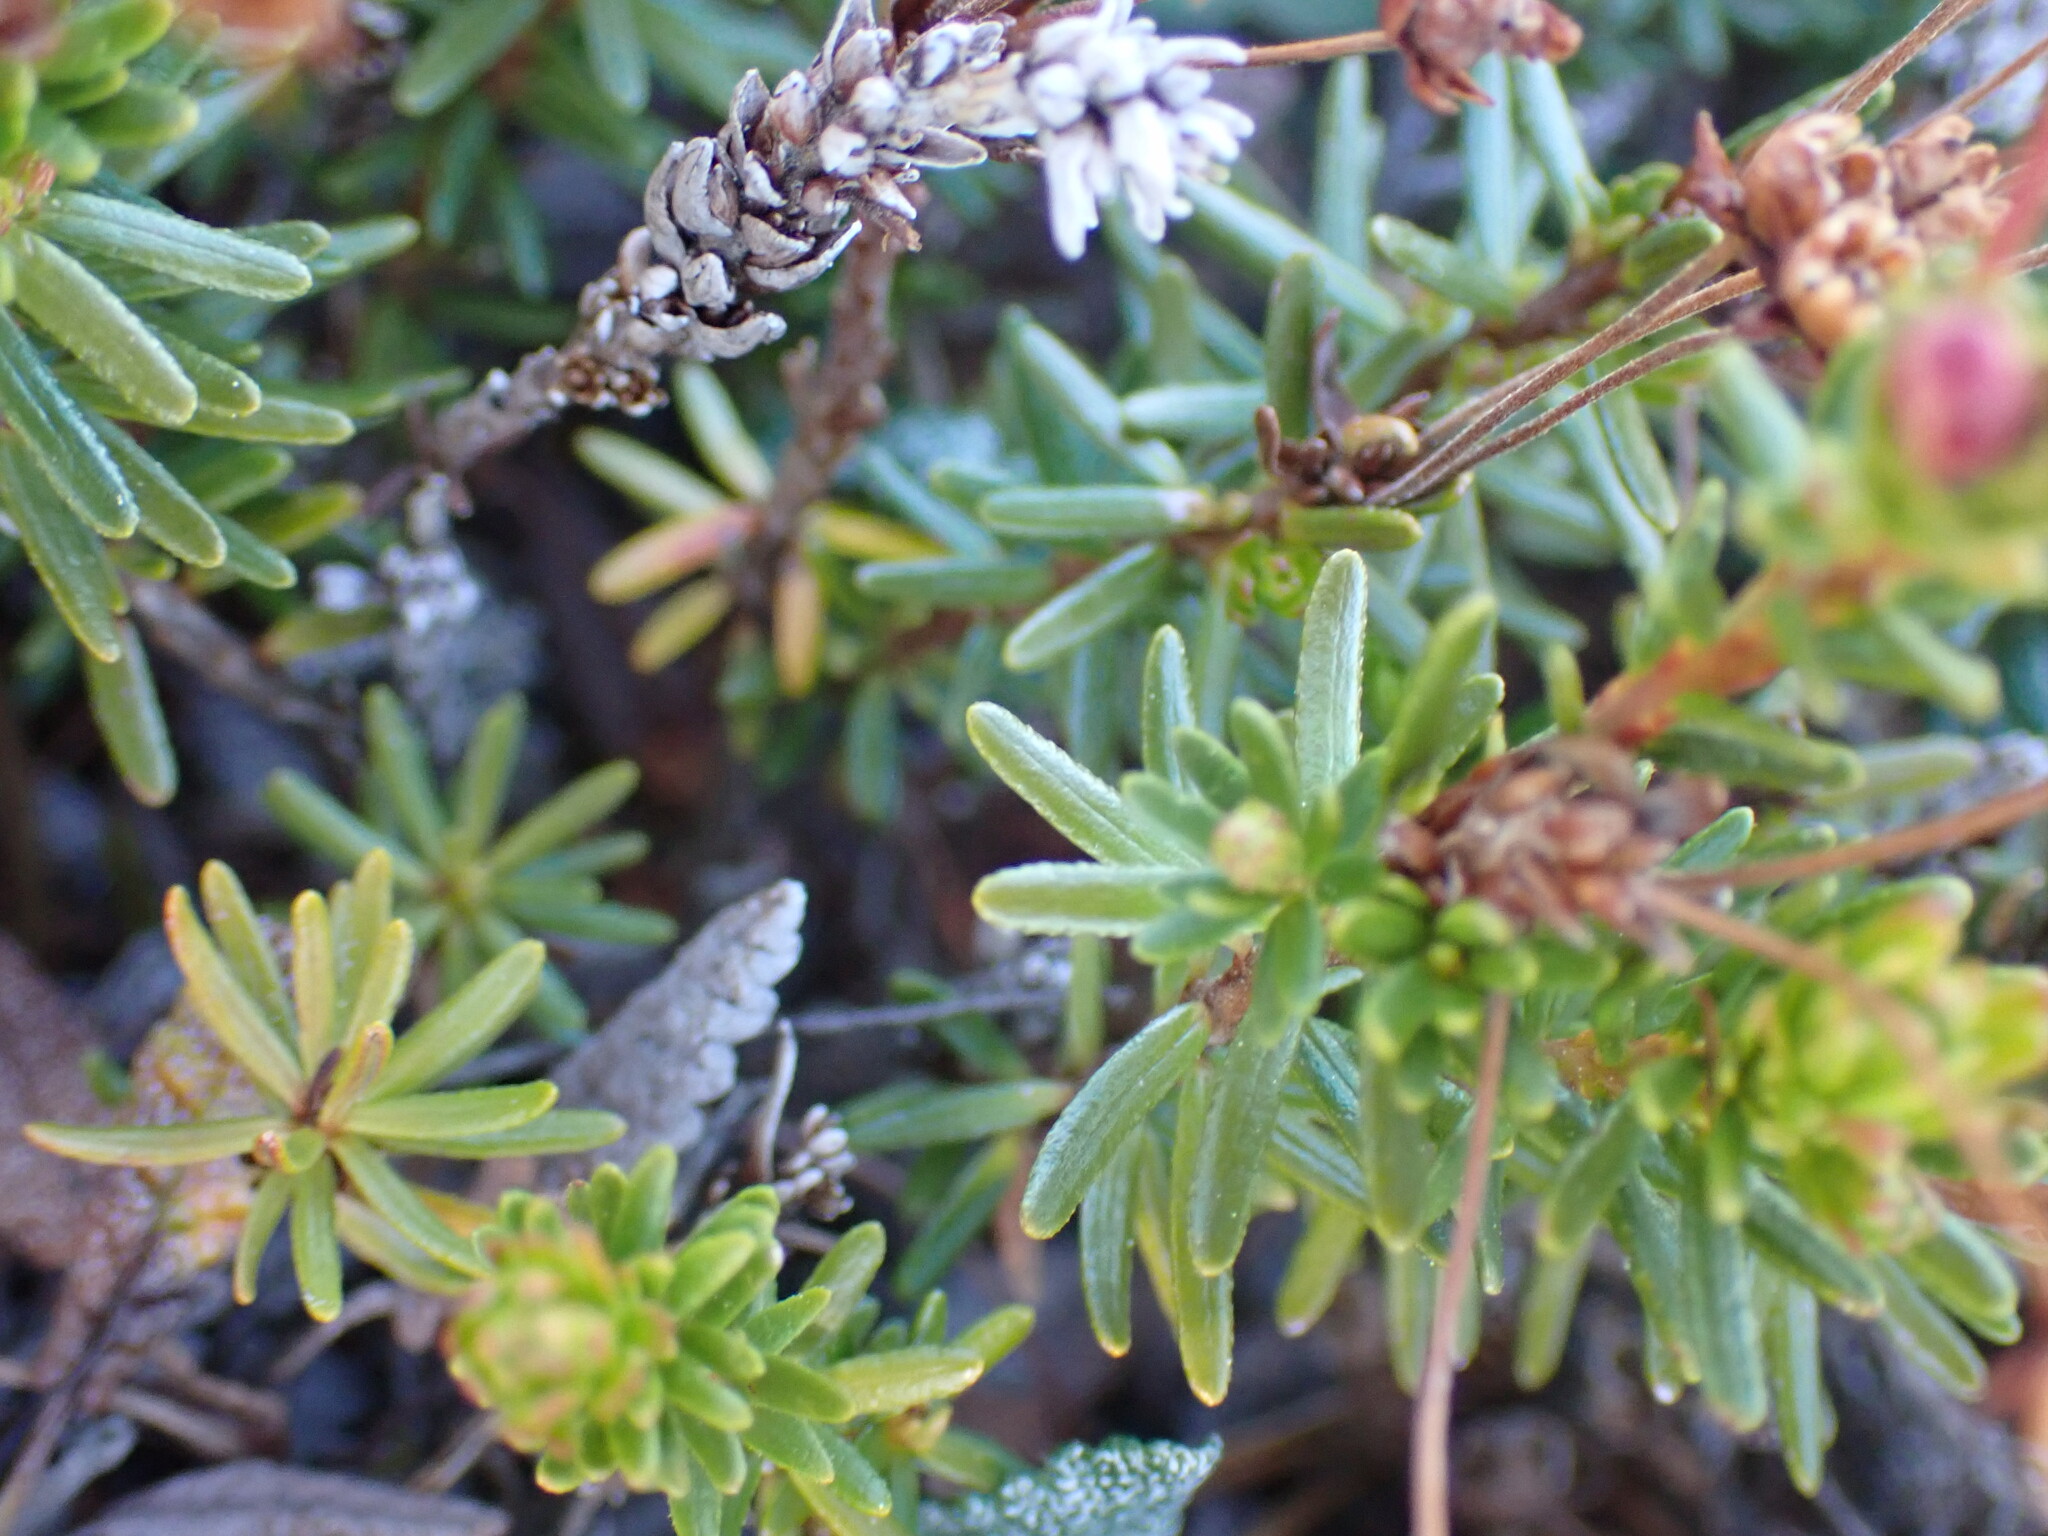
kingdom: Plantae
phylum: Tracheophyta
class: Magnoliopsida
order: Ericales
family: Ericaceae
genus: Phyllodoce
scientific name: Phyllodoce empetriformis
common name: Pink mountain heather
